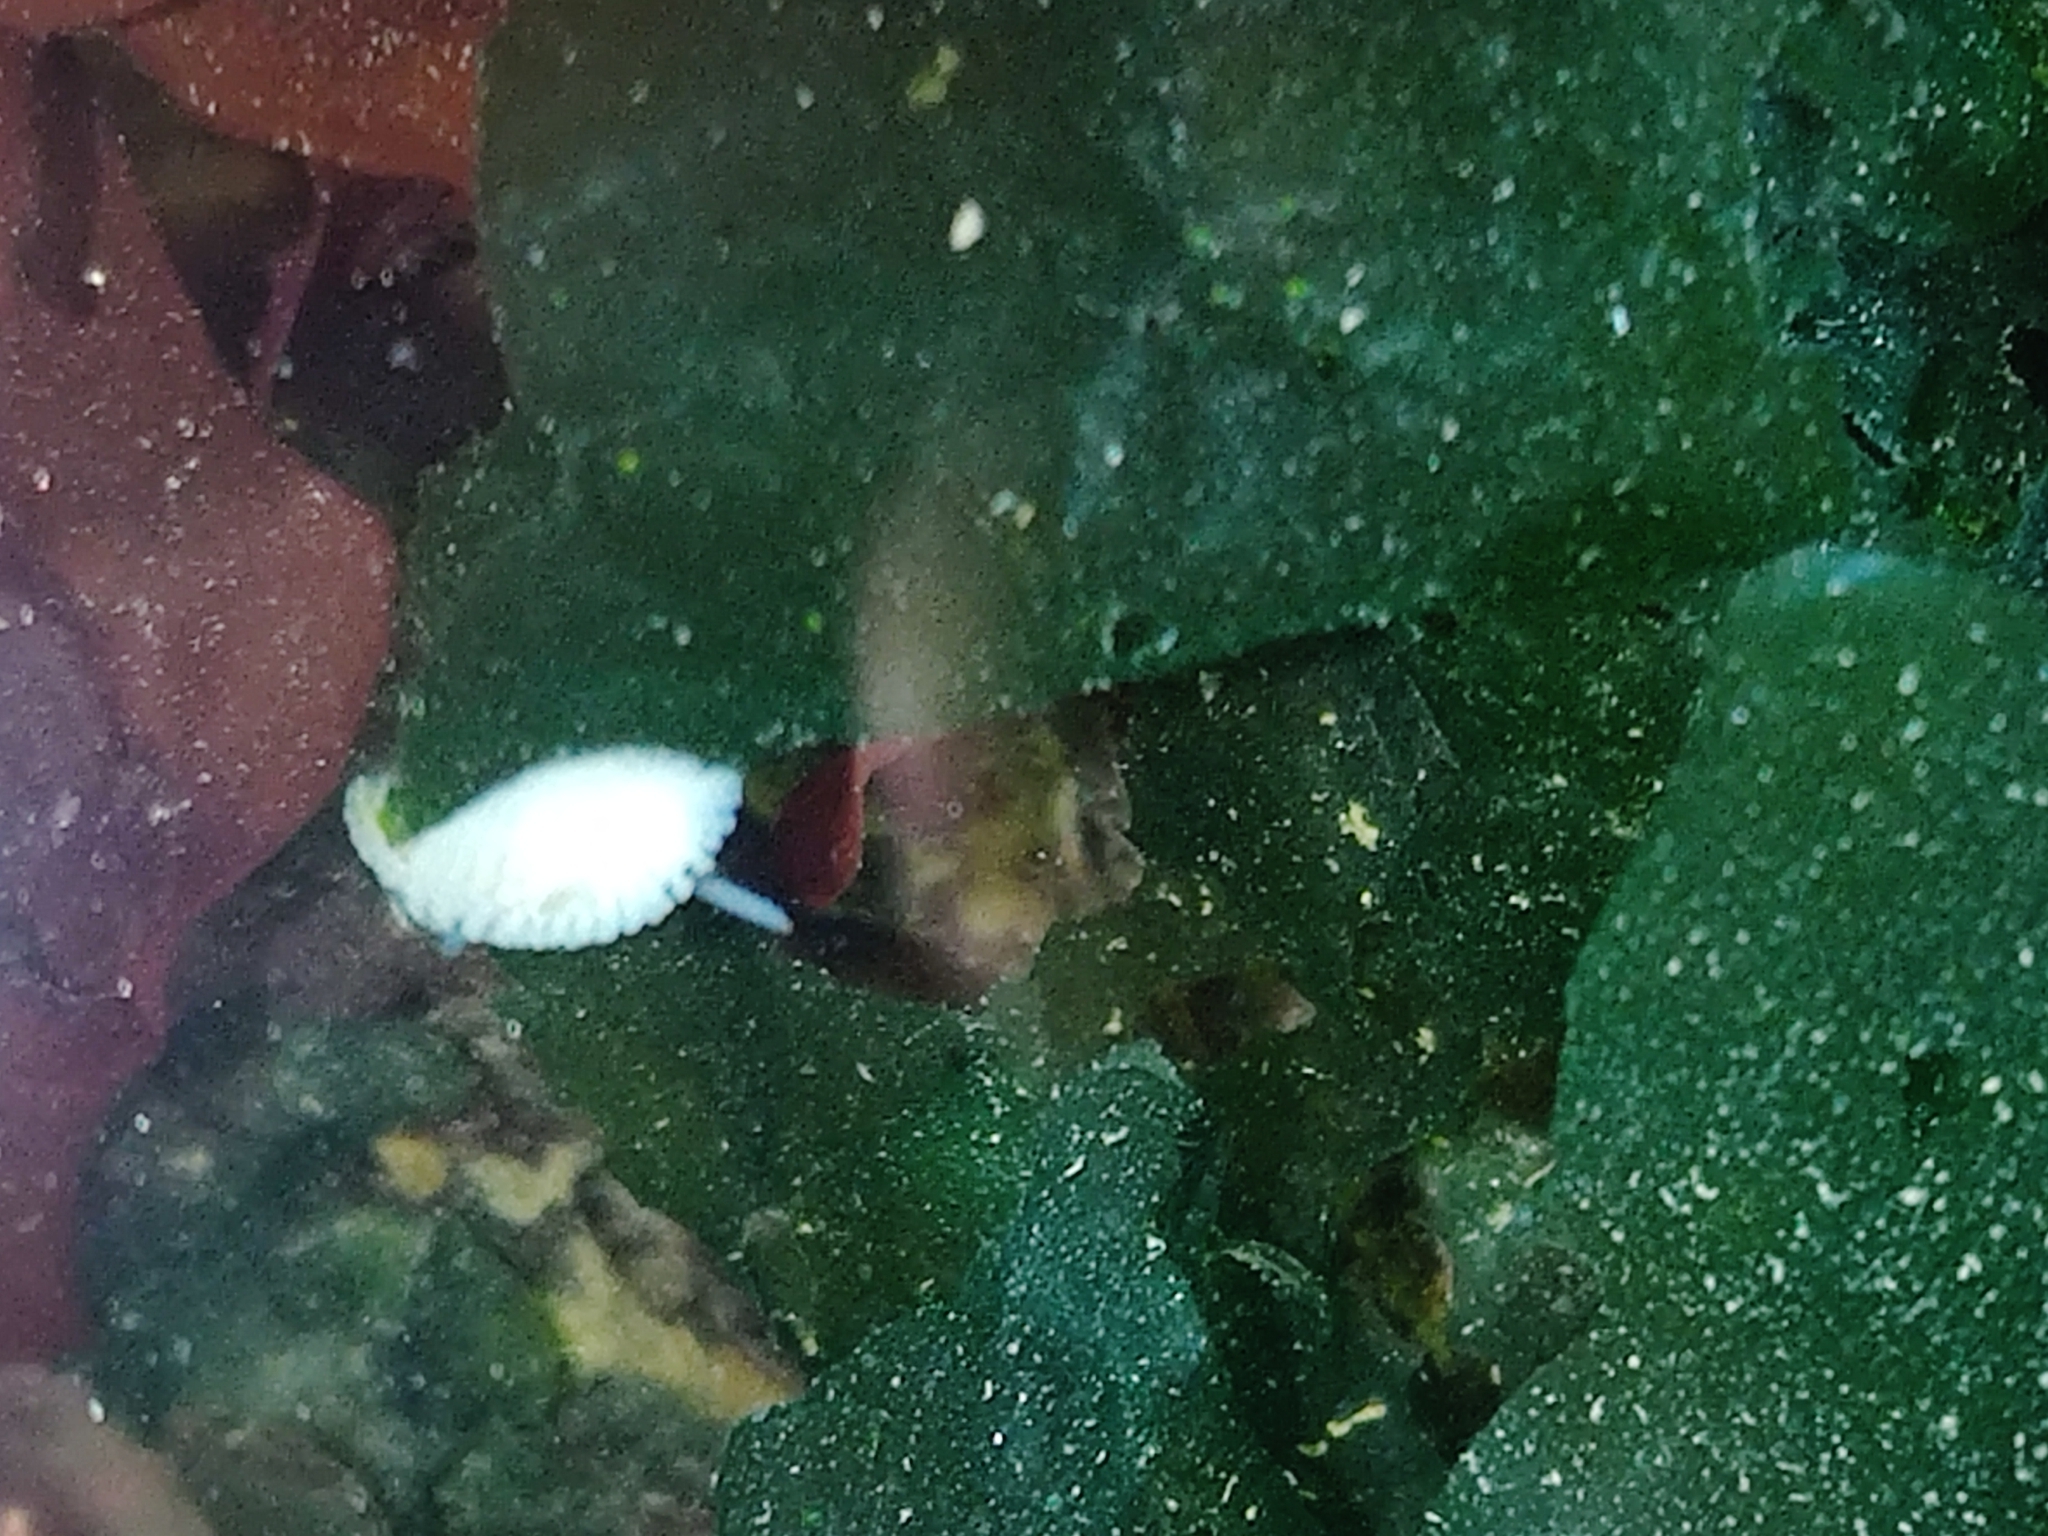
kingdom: Animalia
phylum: Mollusca
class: Gastropoda
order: Nudibranchia
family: Onchidorididae
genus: Onchidoris
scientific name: Onchidoris muricata
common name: Rough doris
